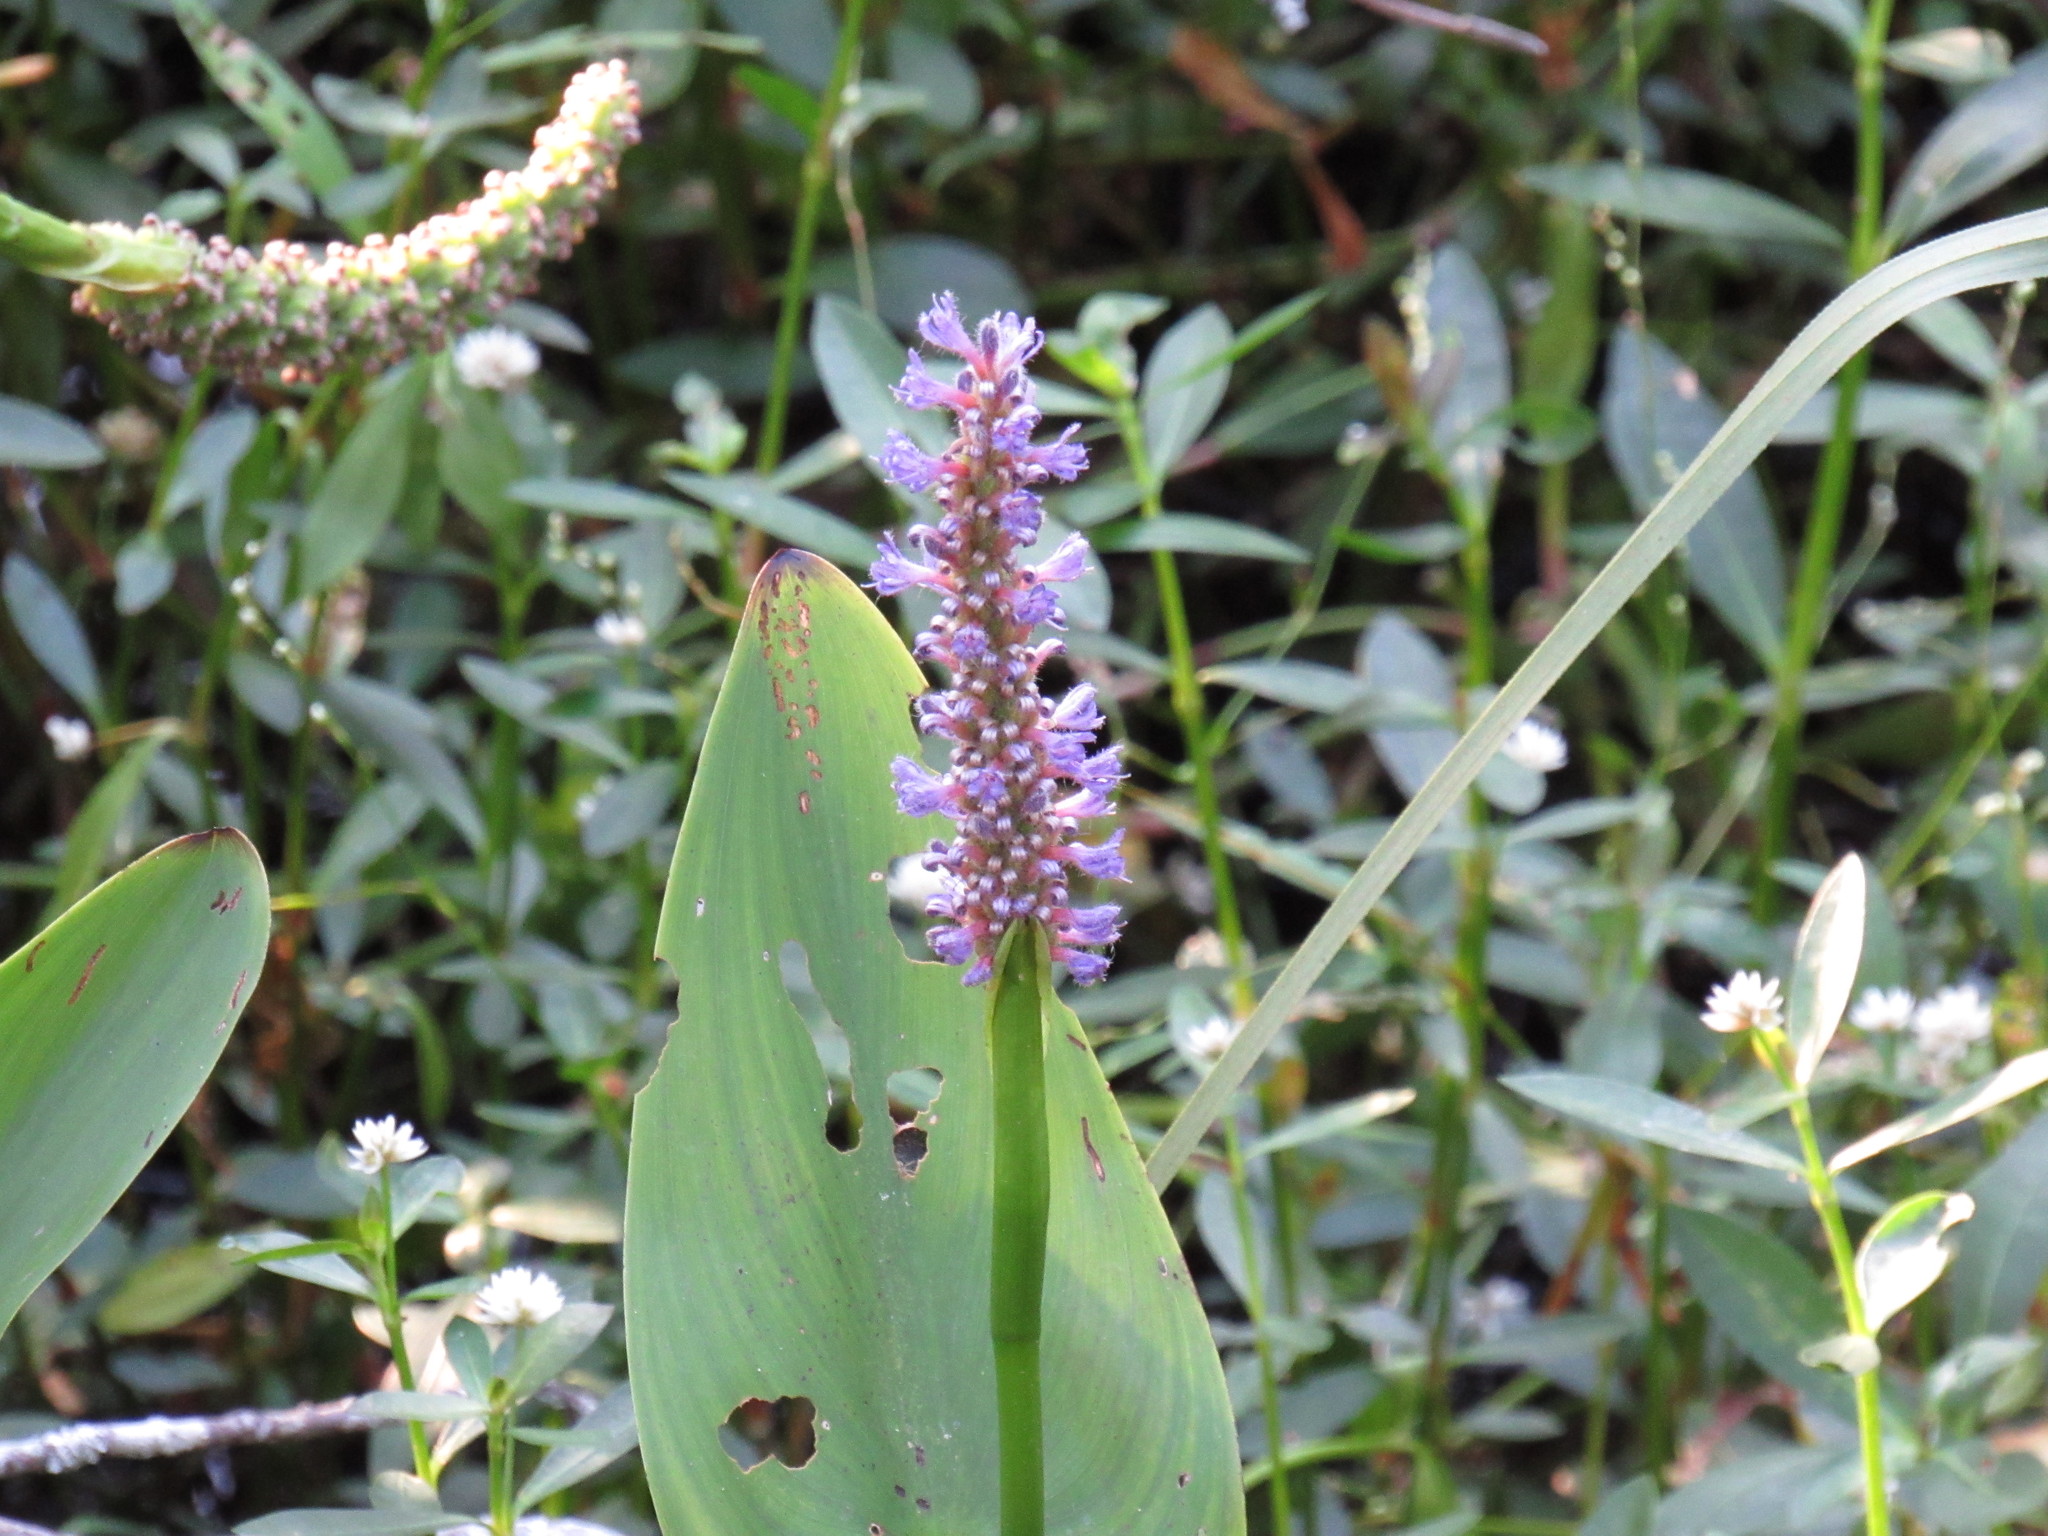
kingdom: Plantae
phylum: Tracheophyta
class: Liliopsida
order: Commelinales
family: Pontederiaceae
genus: Pontederia
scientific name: Pontederia cordata
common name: Pickerelweed
